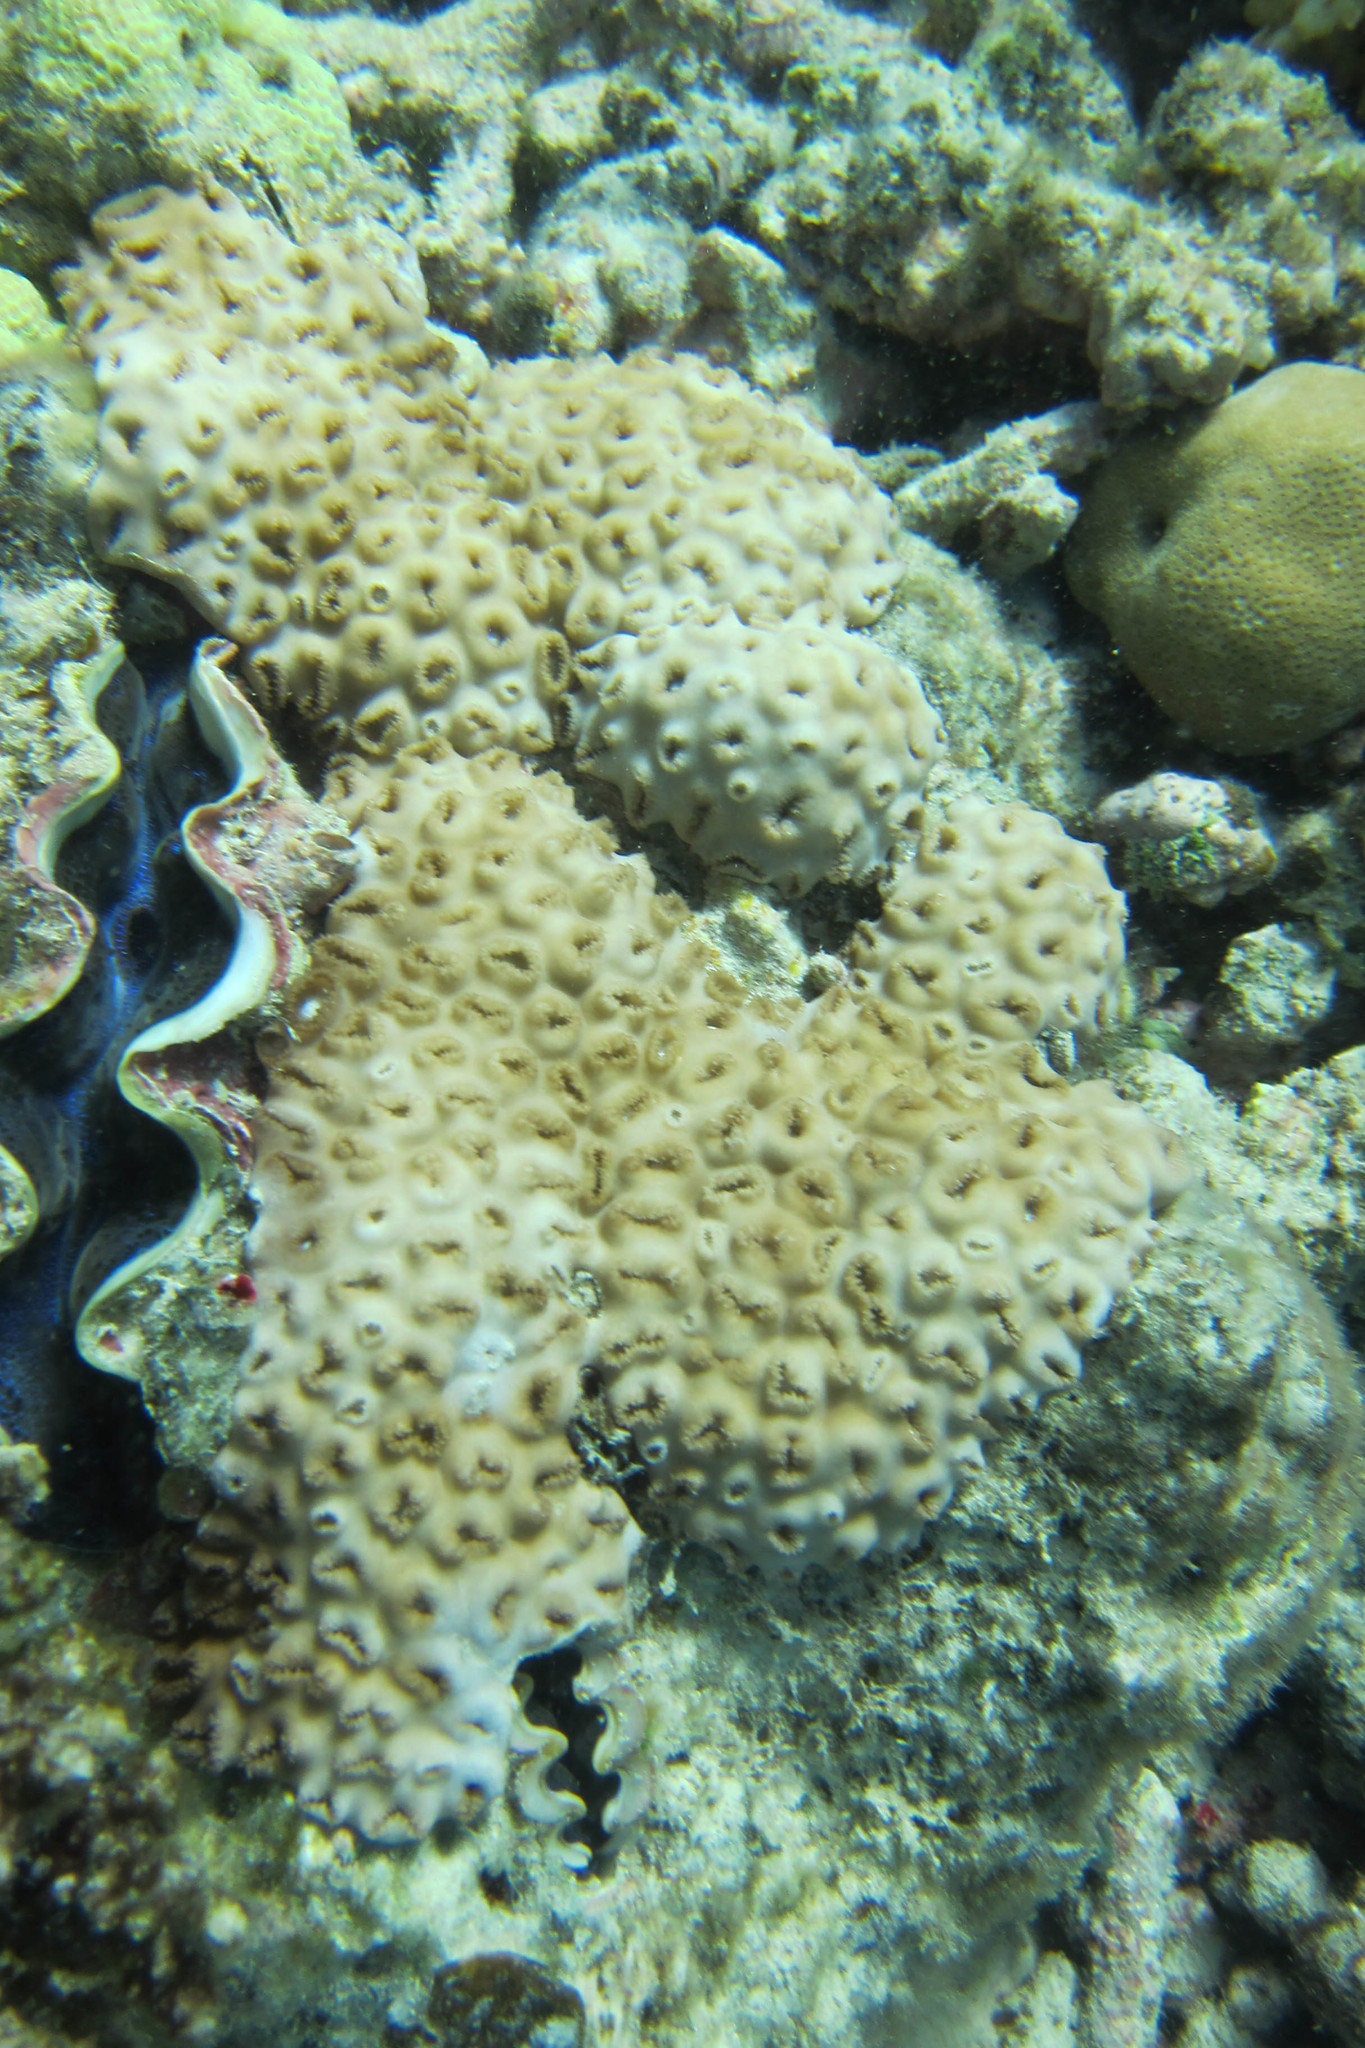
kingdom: Animalia
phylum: Cnidaria
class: Anthozoa
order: Zoantharia
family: Sphenopidae
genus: Palythoa
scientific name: Palythoa tuberculosa
